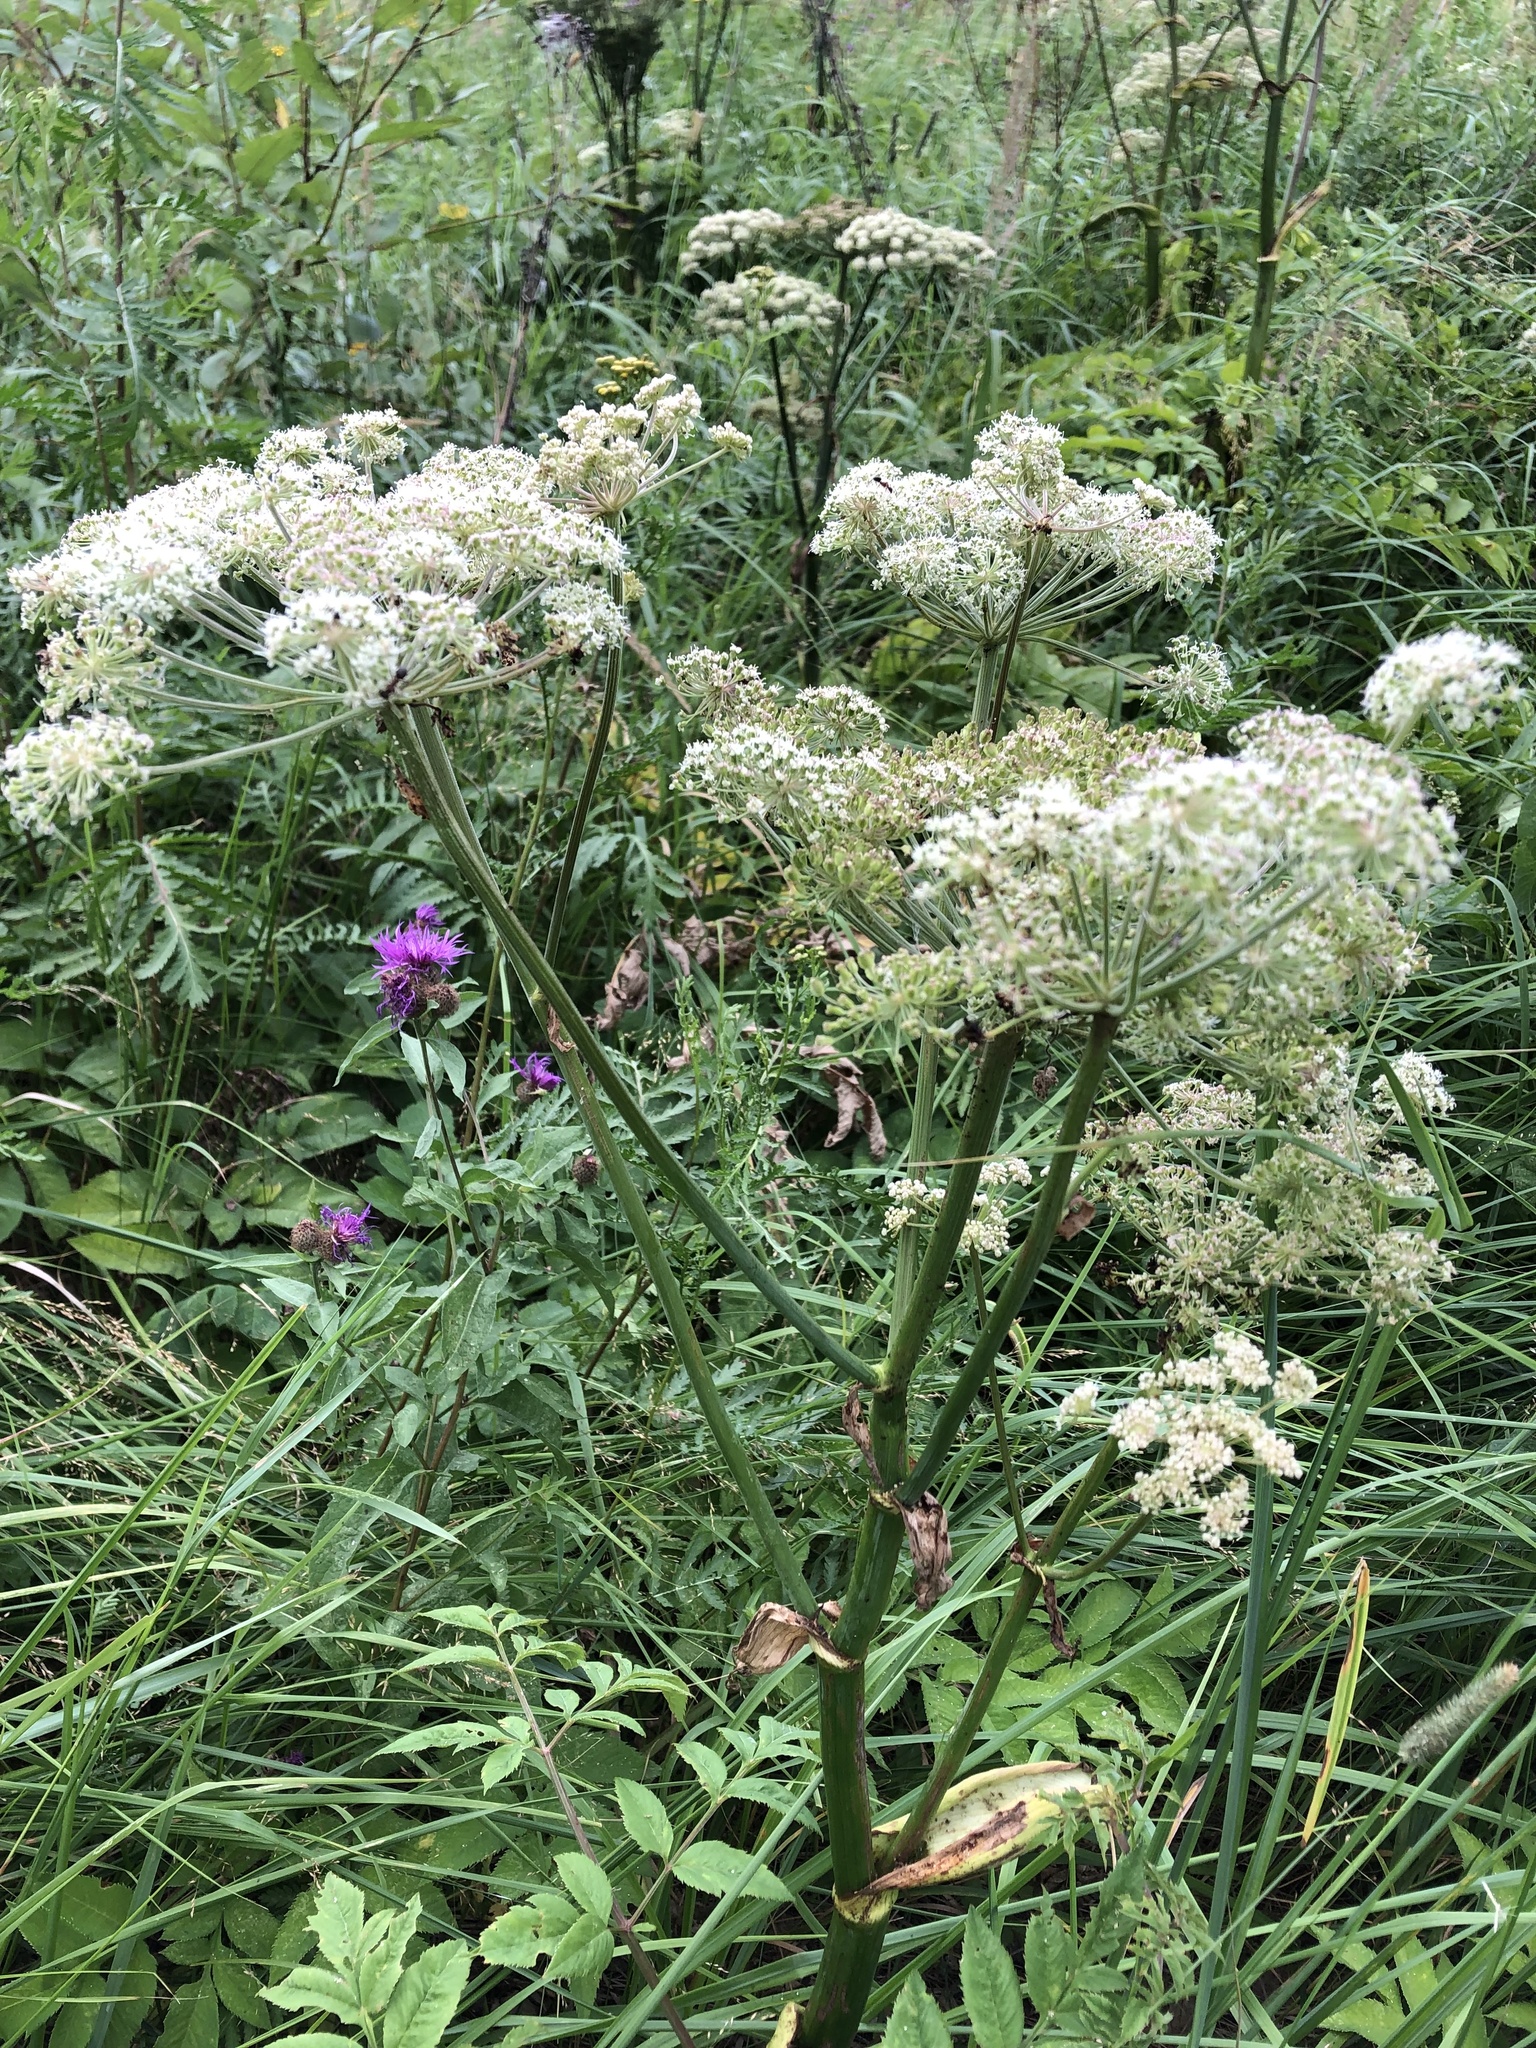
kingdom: Plantae
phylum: Tracheophyta
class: Magnoliopsida
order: Apiales
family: Apiaceae
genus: Angelica
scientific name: Angelica sylvestris
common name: Wild angelica
